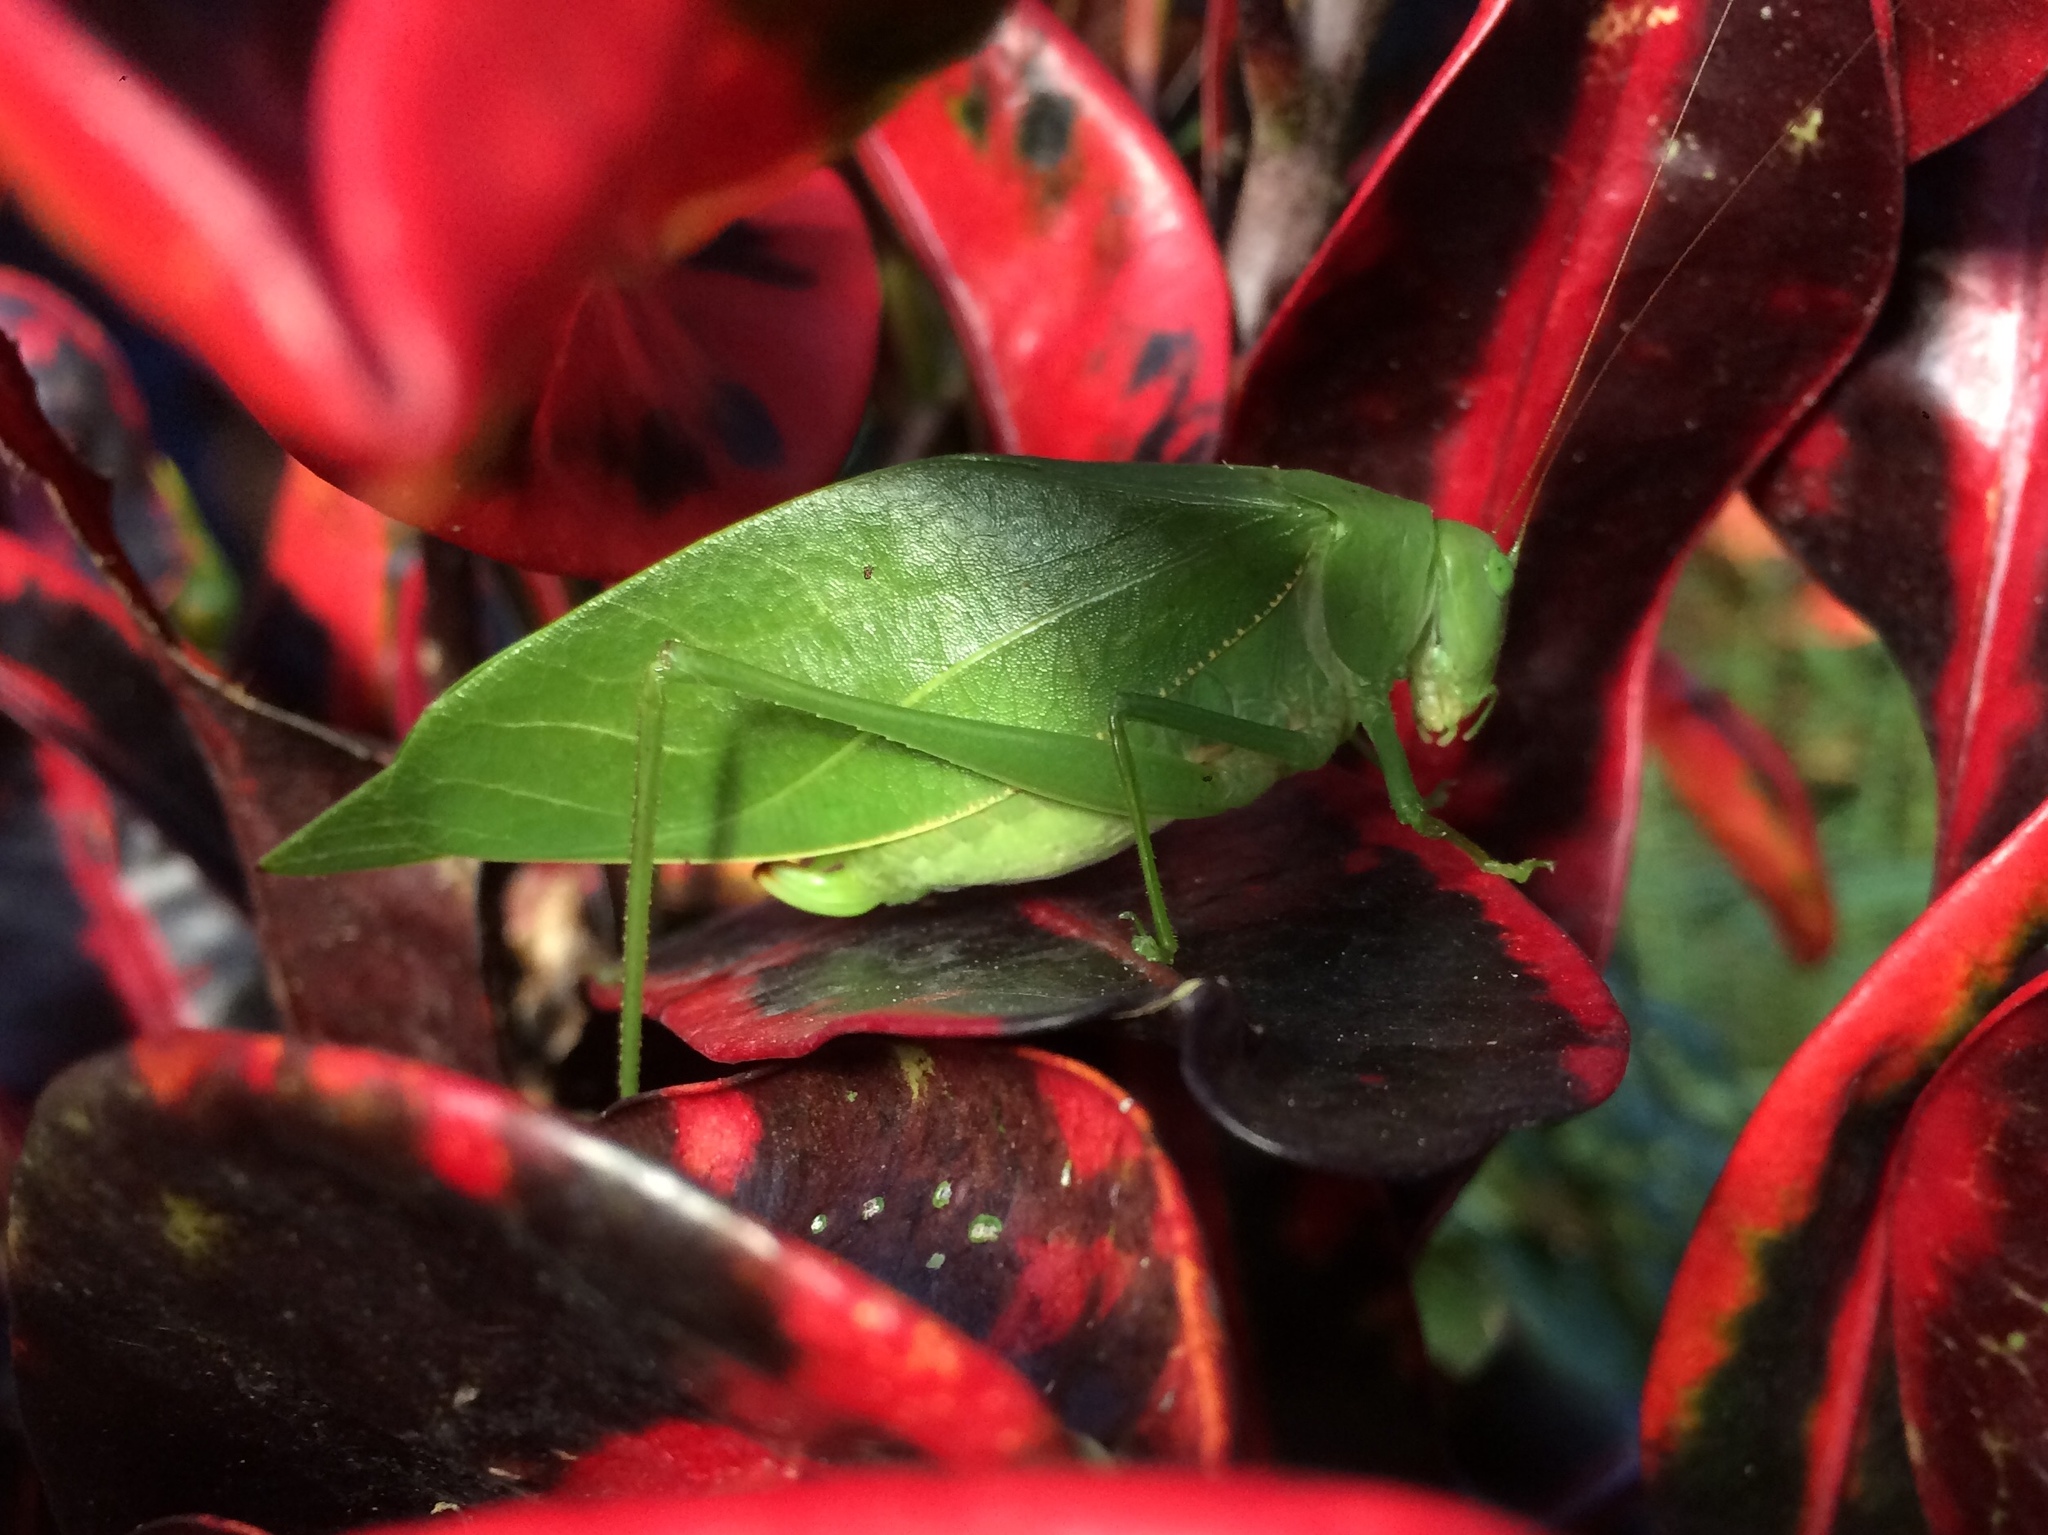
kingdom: Animalia
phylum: Arthropoda
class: Insecta
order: Orthoptera
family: Tettigoniidae
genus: Microcentrum
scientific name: Microcentrum marginatum
